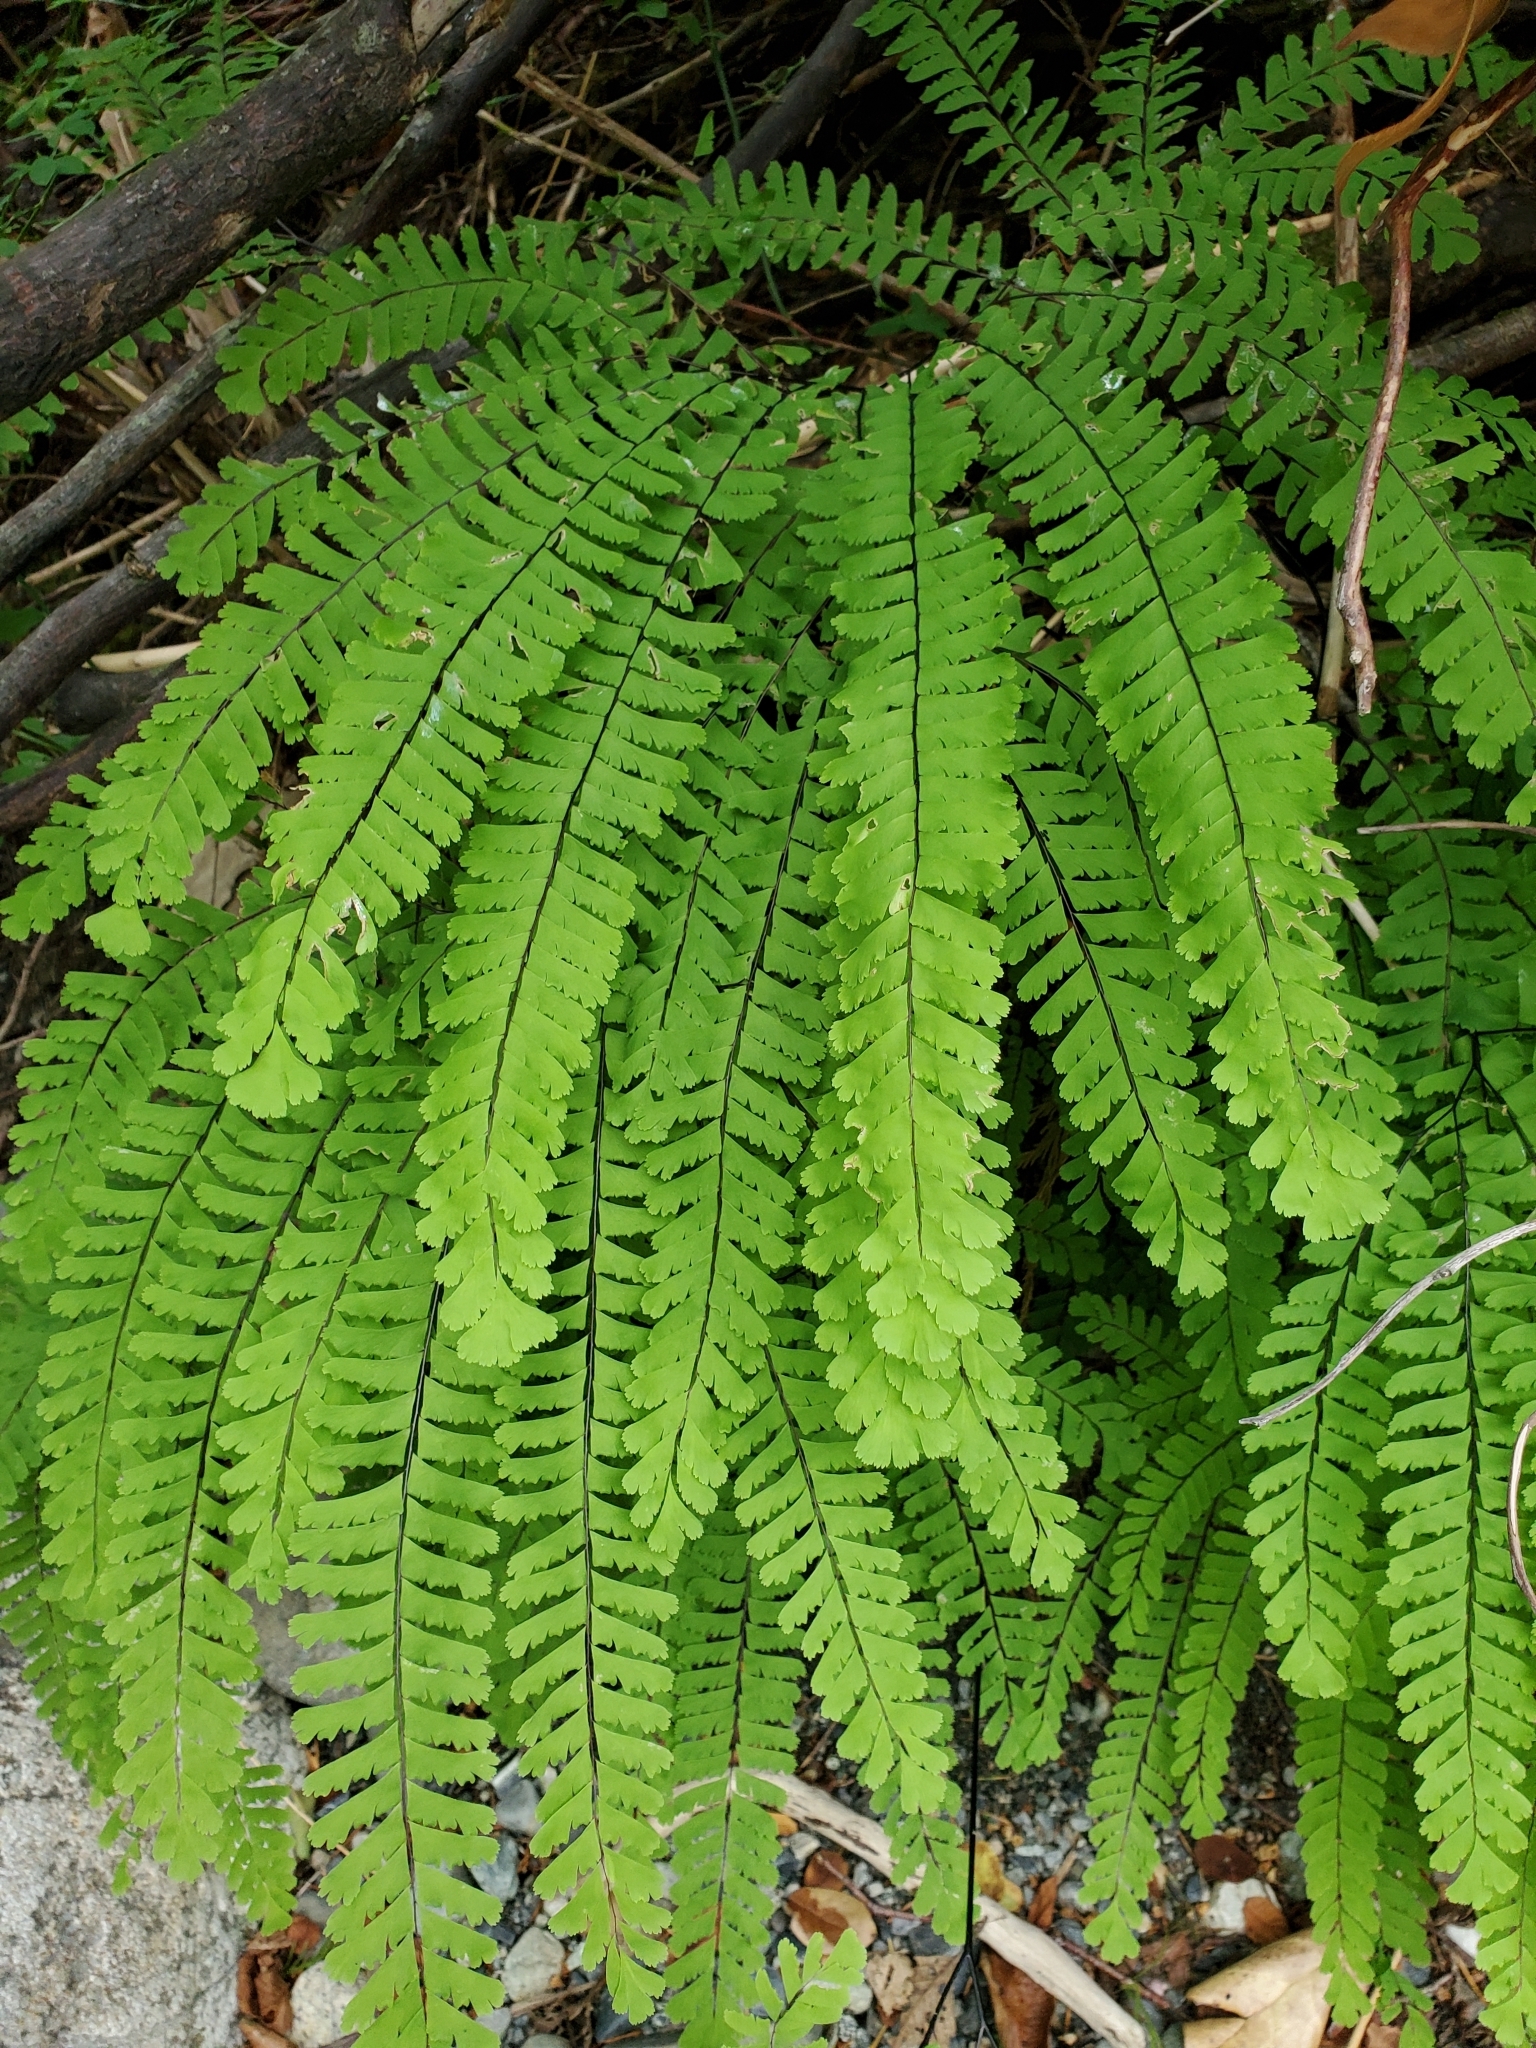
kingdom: Plantae
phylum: Tracheophyta
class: Polypodiopsida
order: Polypodiales
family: Pteridaceae
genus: Adiantum
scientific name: Adiantum aleuticum
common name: Aleutian maidenhair fern
